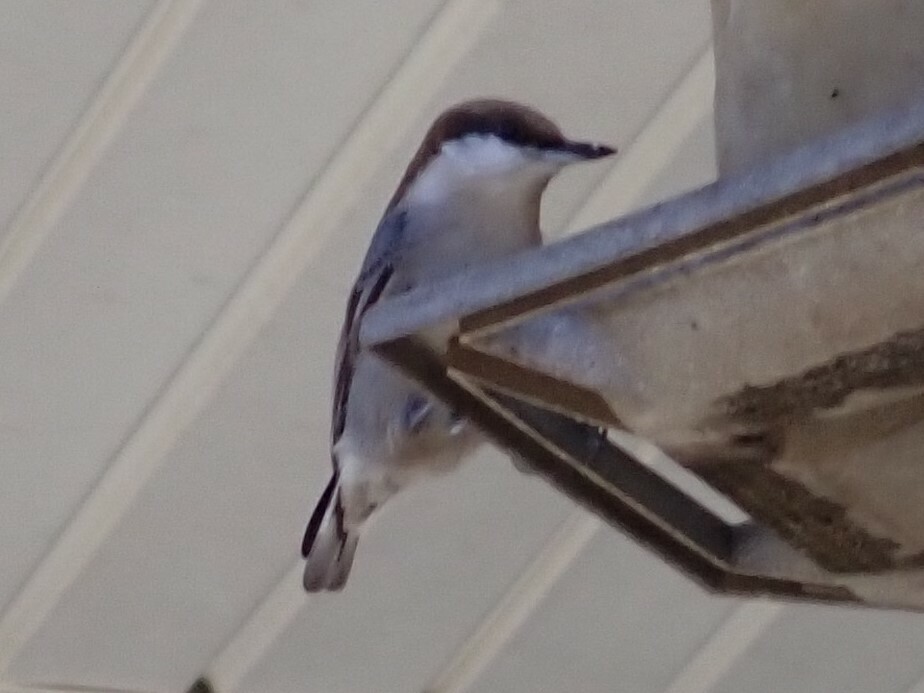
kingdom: Animalia
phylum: Chordata
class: Aves
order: Passeriformes
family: Sittidae
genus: Sitta
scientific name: Sitta pusilla
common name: Brown-headed nuthatch
